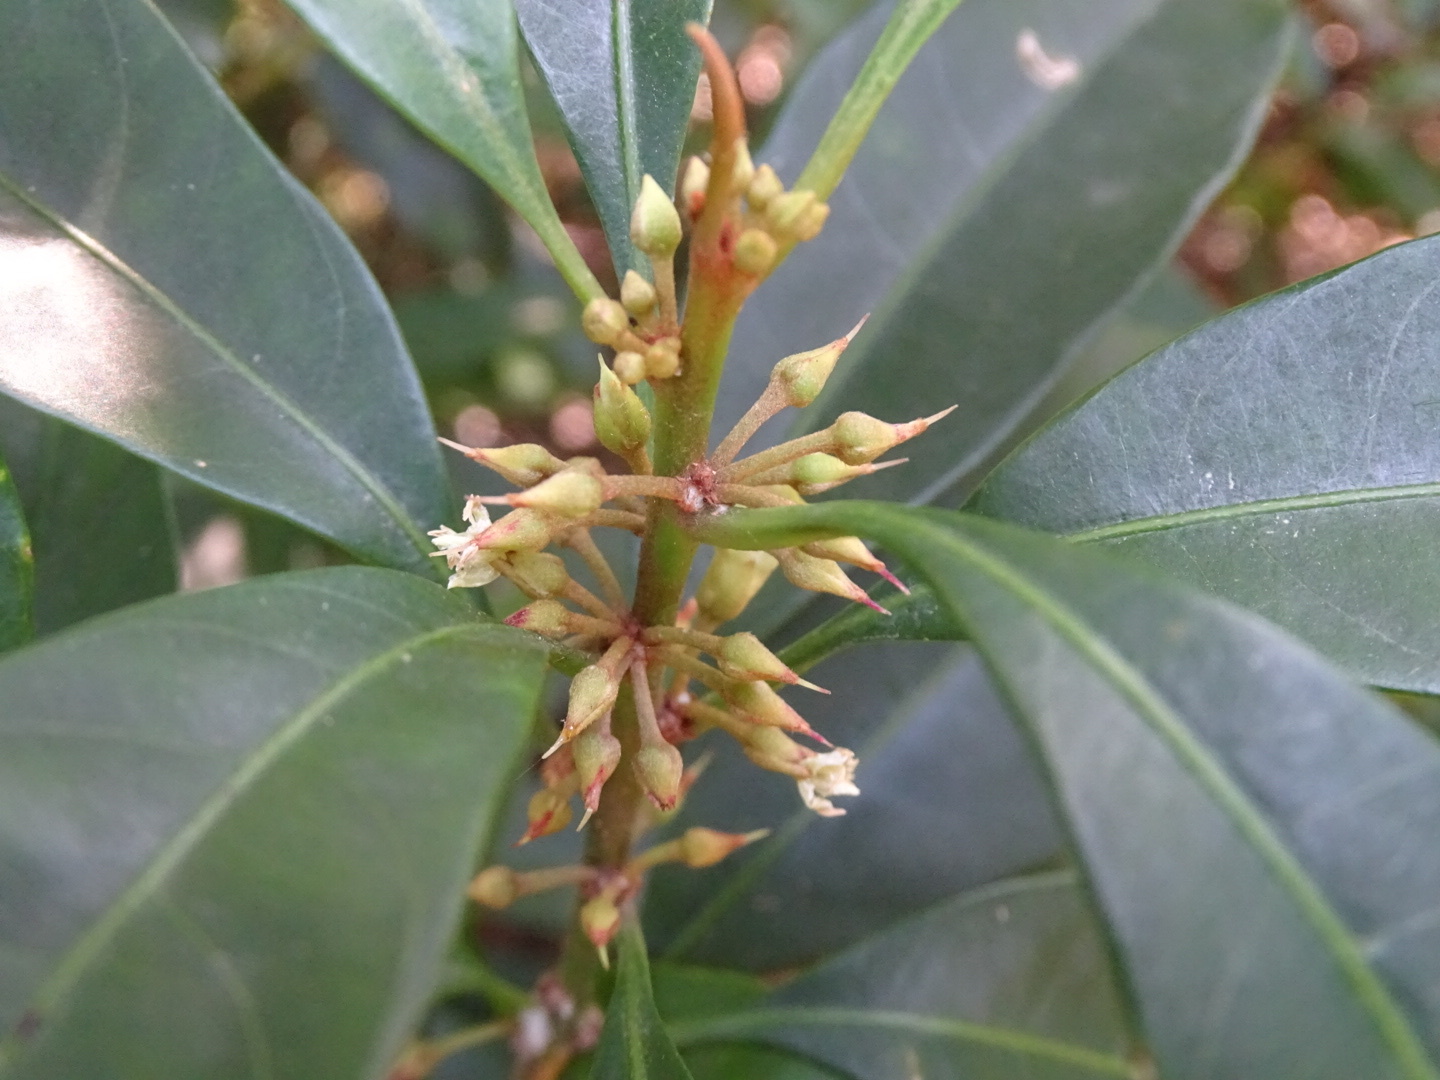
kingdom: Plantae
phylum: Tracheophyta
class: Magnoliopsida
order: Ericales
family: Sapotaceae
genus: Sideroxylon
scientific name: Sideroxylon wightianum
